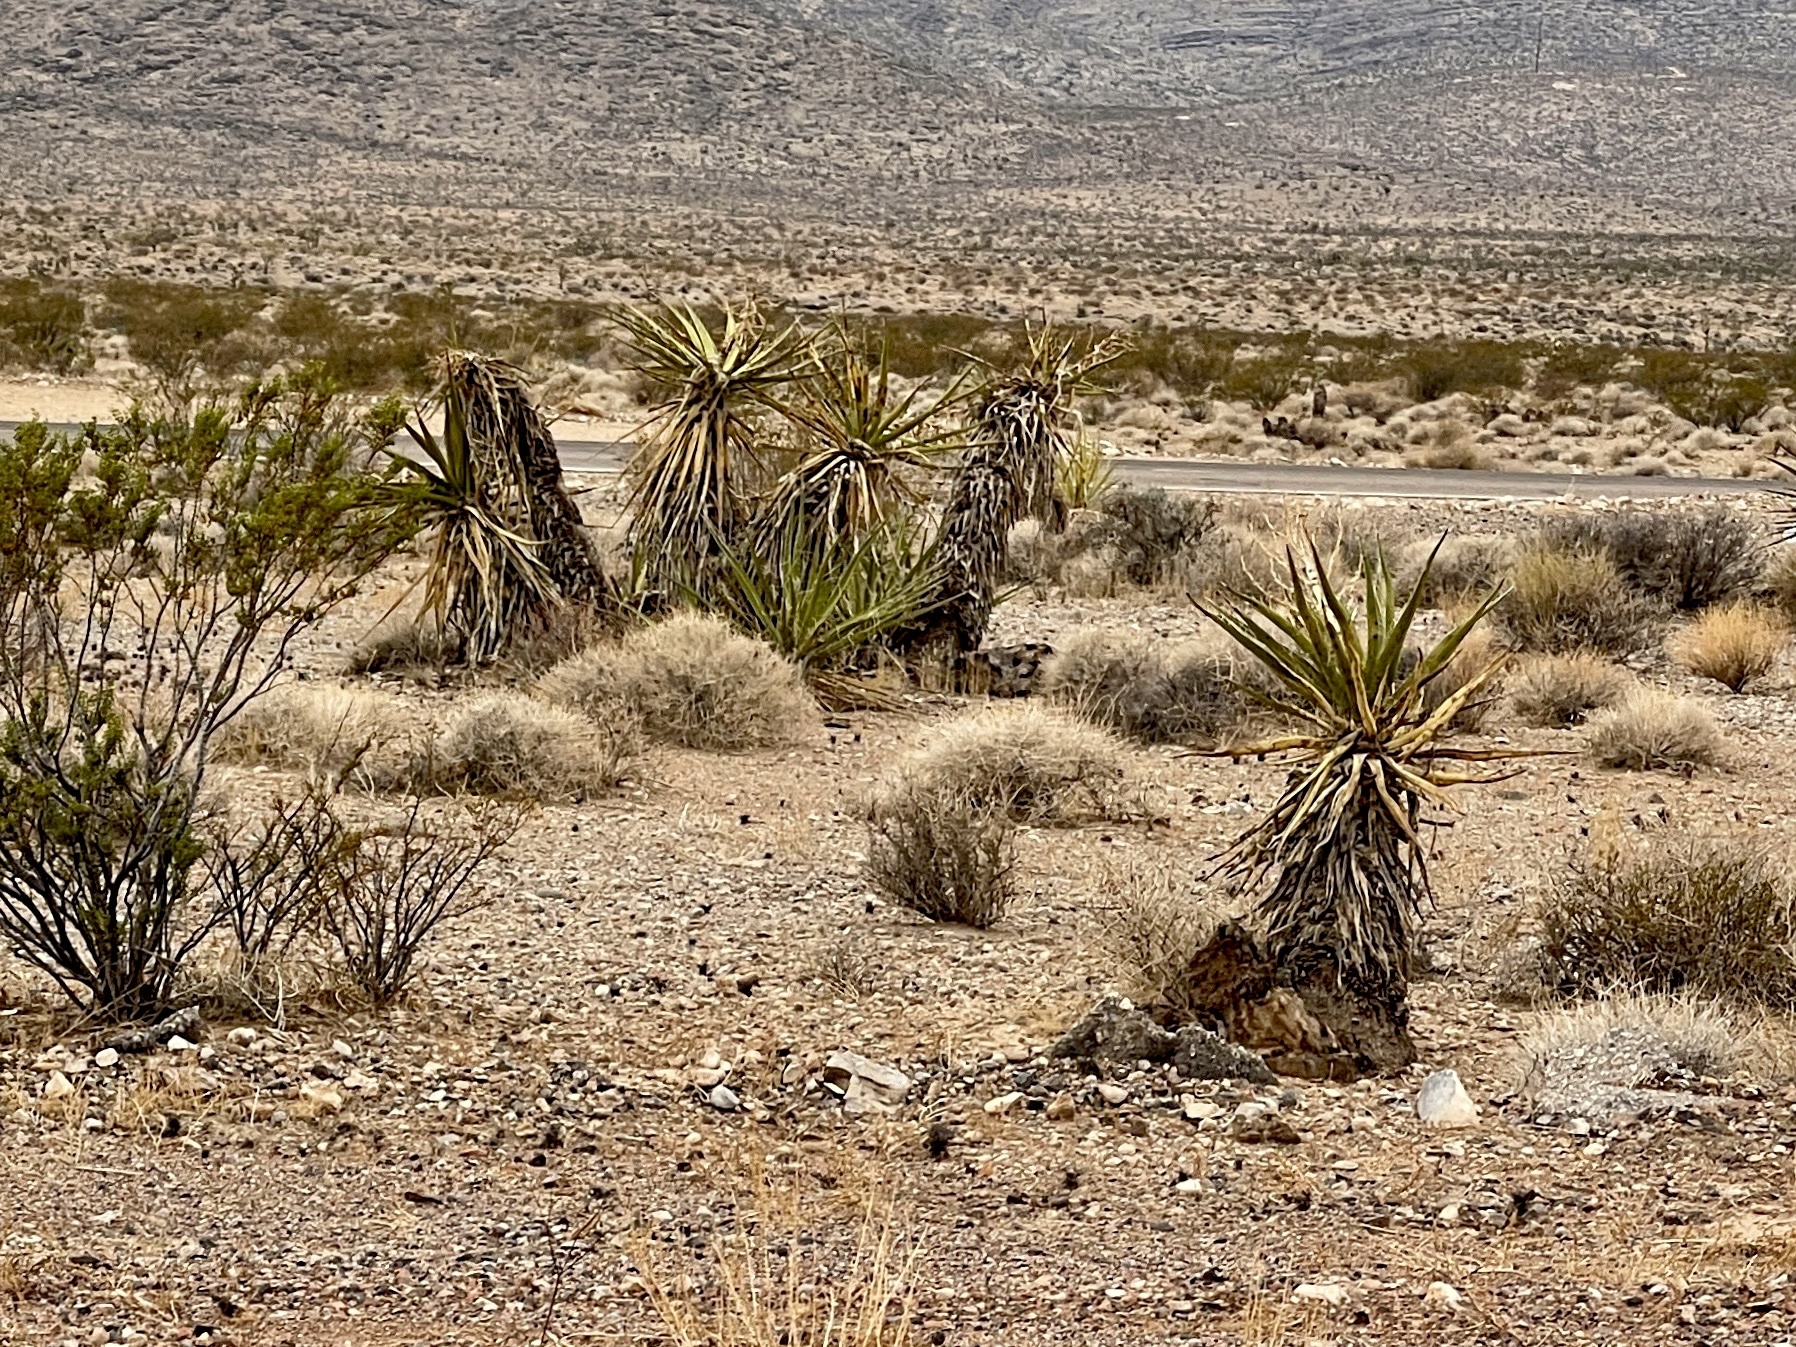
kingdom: Plantae
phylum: Tracheophyta
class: Liliopsida
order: Asparagales
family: Asparagaceae
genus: Yucca
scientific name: Yucca schidigera
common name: Mojave yucca
